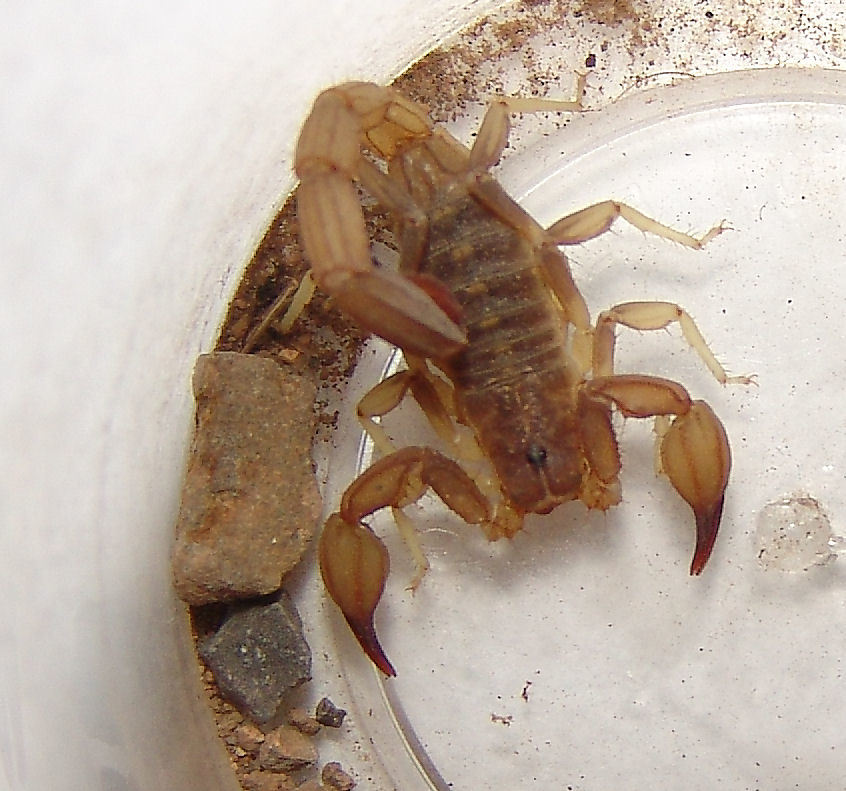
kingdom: Animalia
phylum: Arthropoda
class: Arachnida
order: Scorpiones
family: Vaejovidae
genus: Chihuahuanus
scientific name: Chihuahuanus crassimanus
